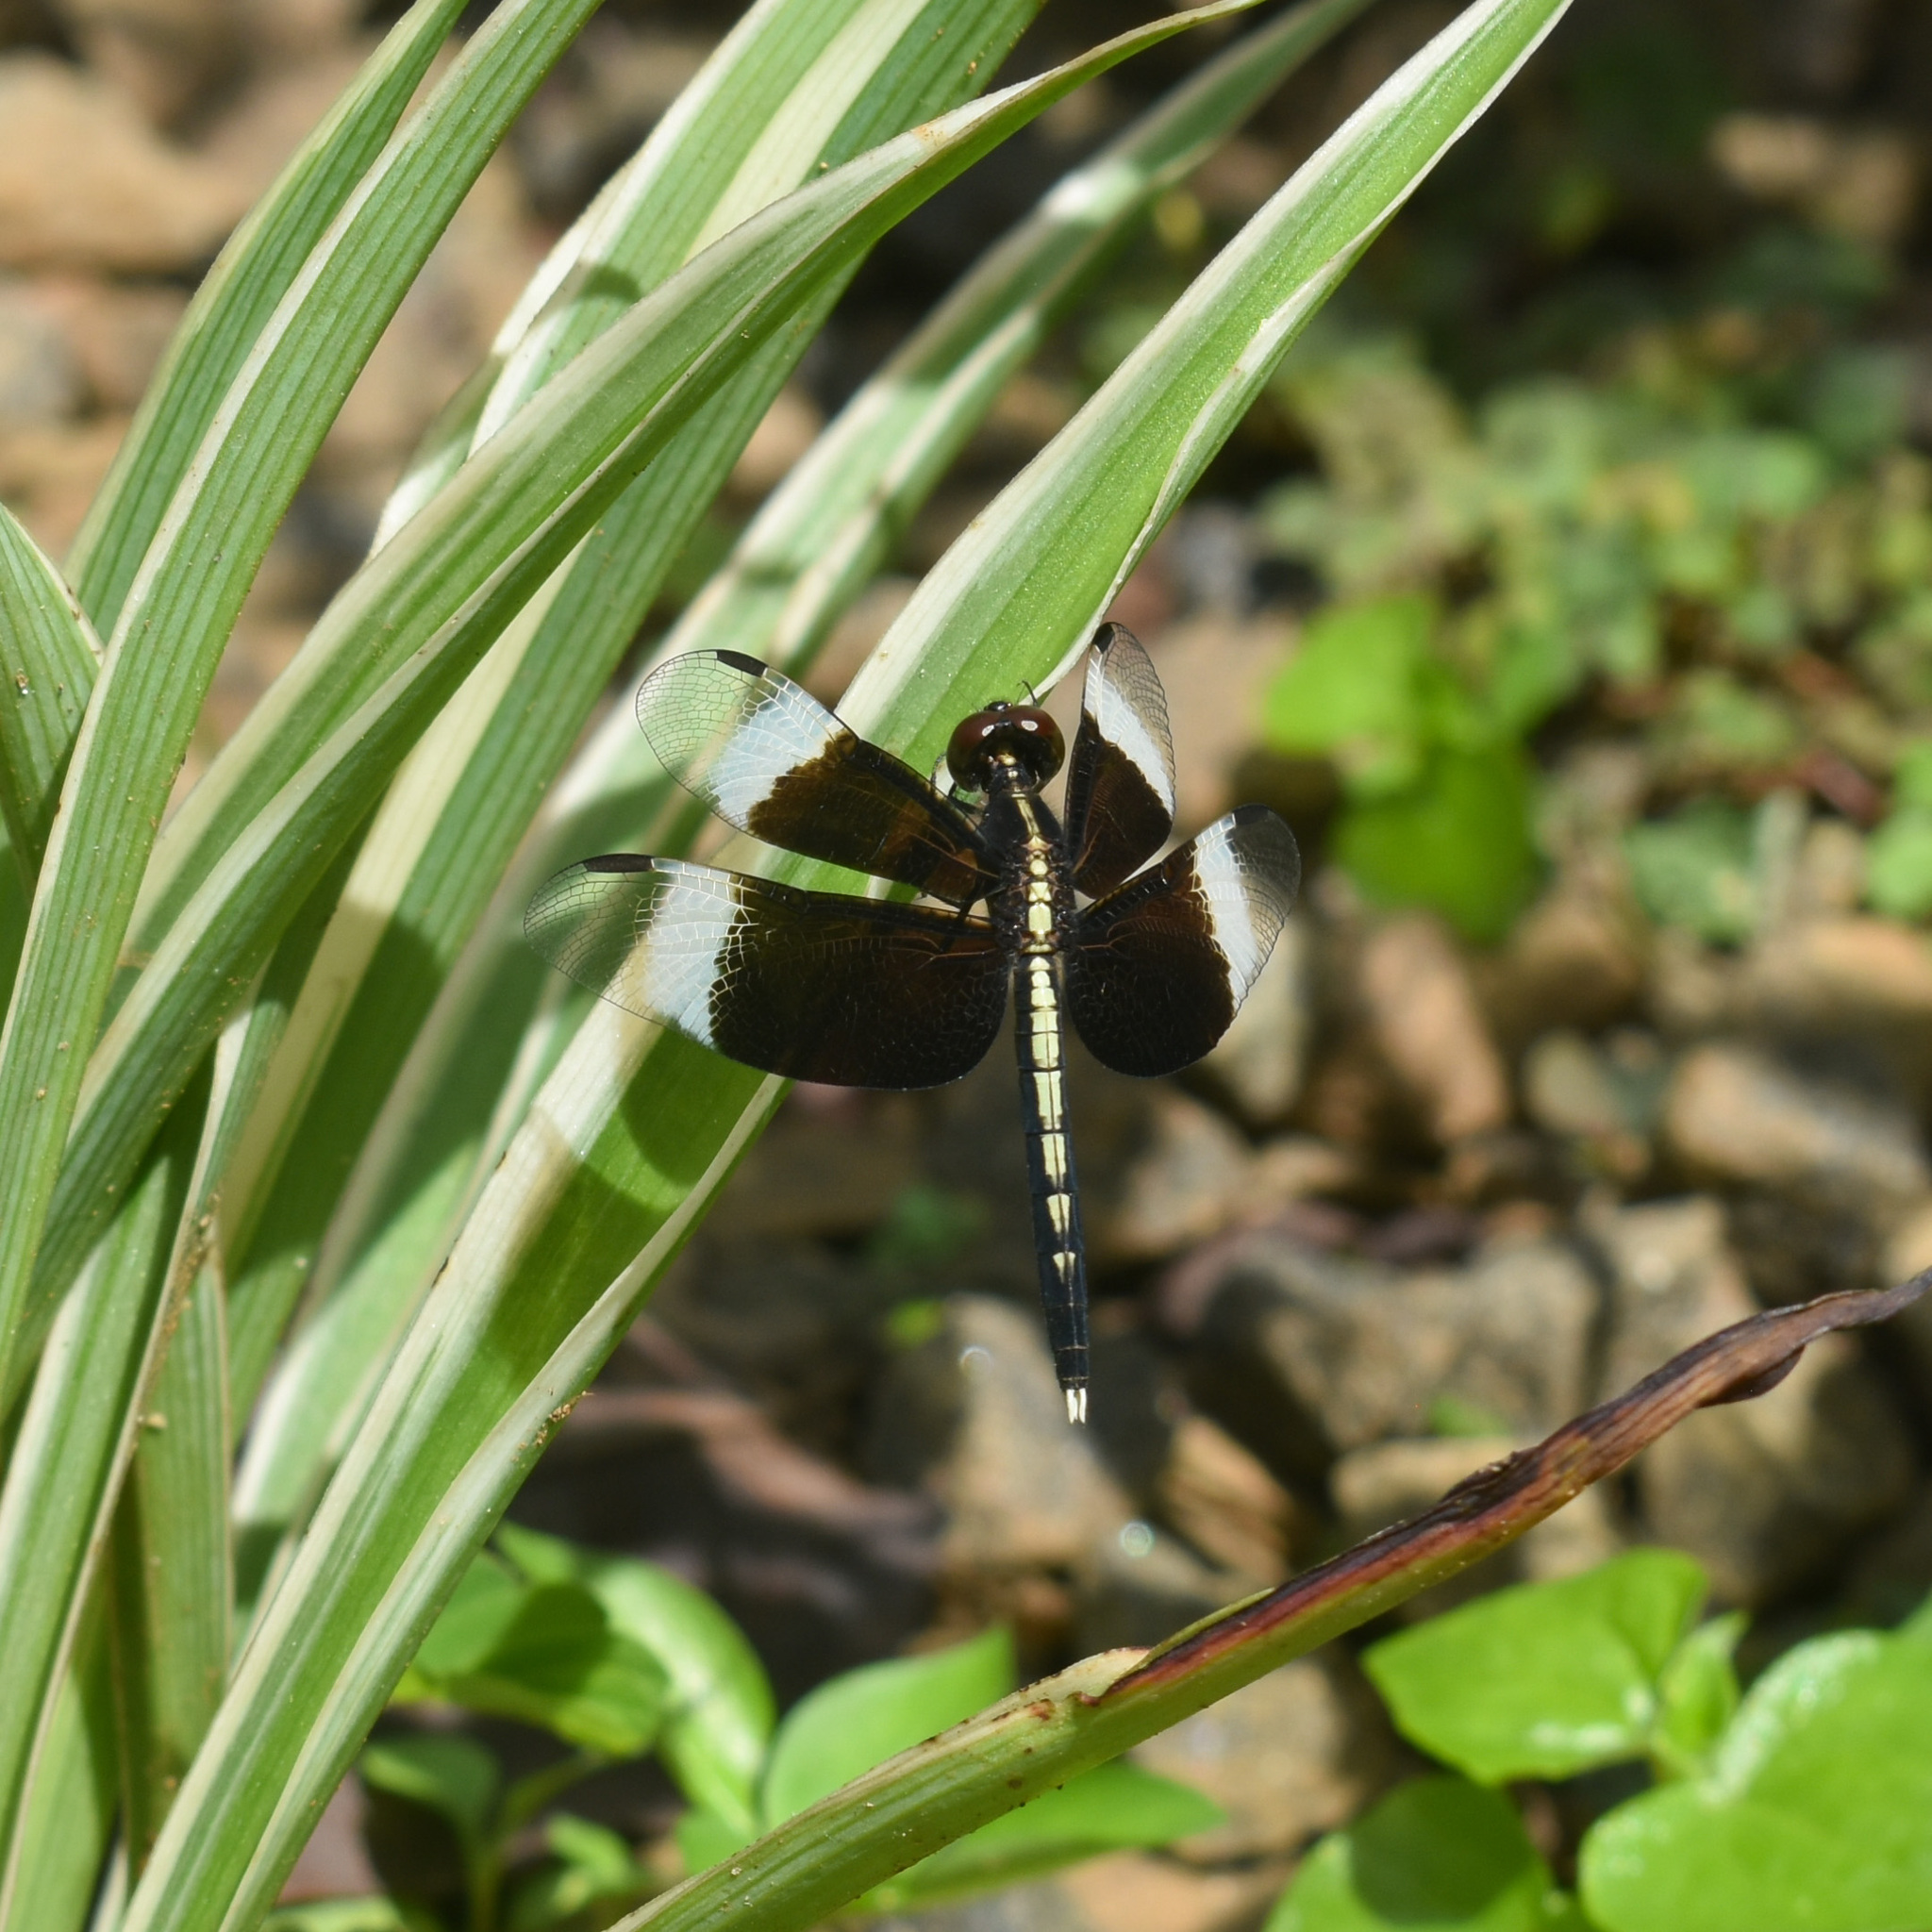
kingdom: Animalia
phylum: Arthropoda
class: Insecta
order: Odonata
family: Libellulidae
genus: Neurothemis
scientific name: Neurothemis tullia
